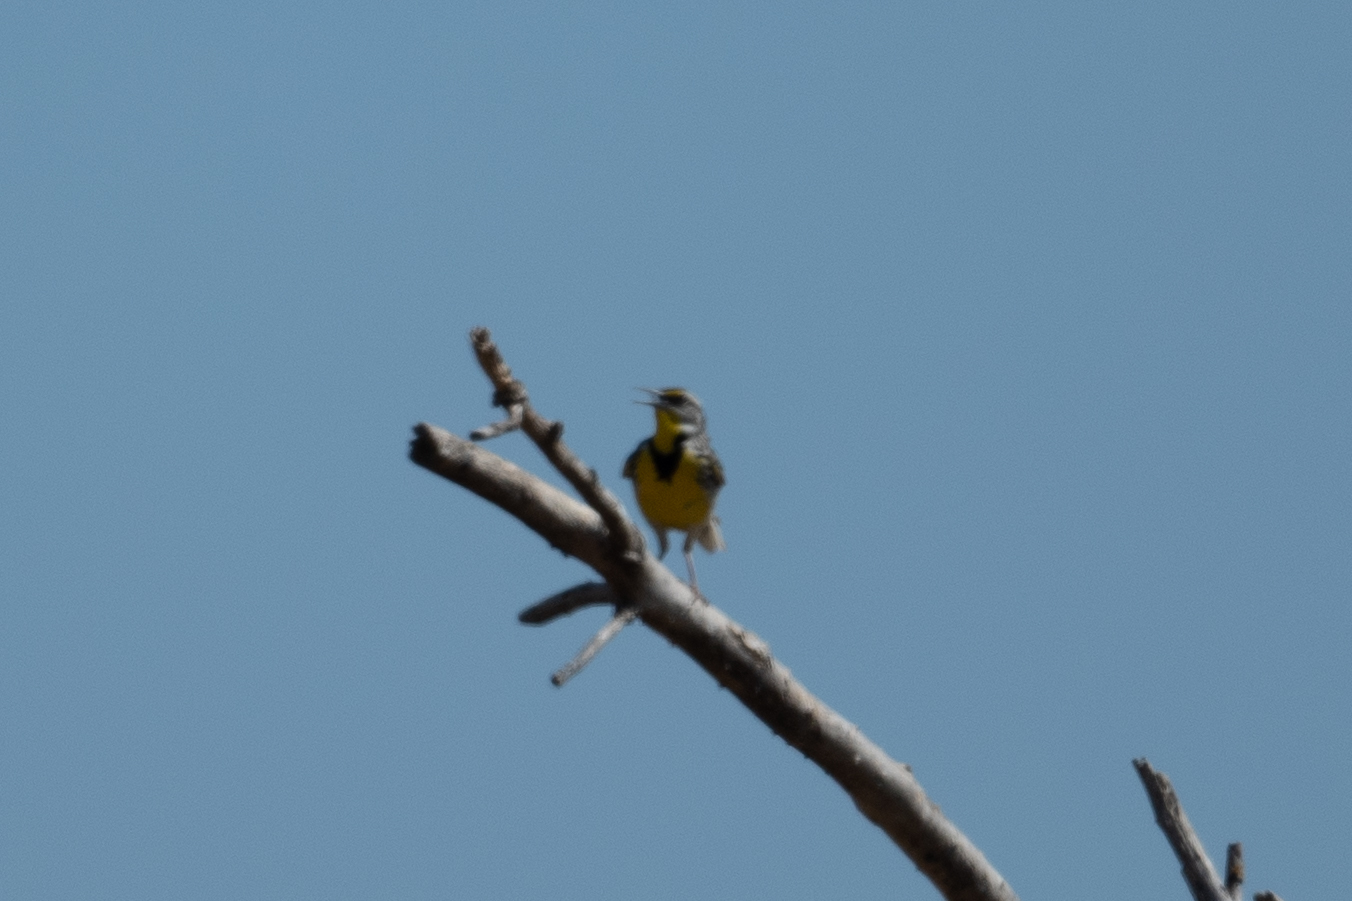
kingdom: Animalia
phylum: Chordata
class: Aves
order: Passeriformes
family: Icteridae
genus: Sturnella
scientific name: Sturnella neglecta
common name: Western meadowlark
